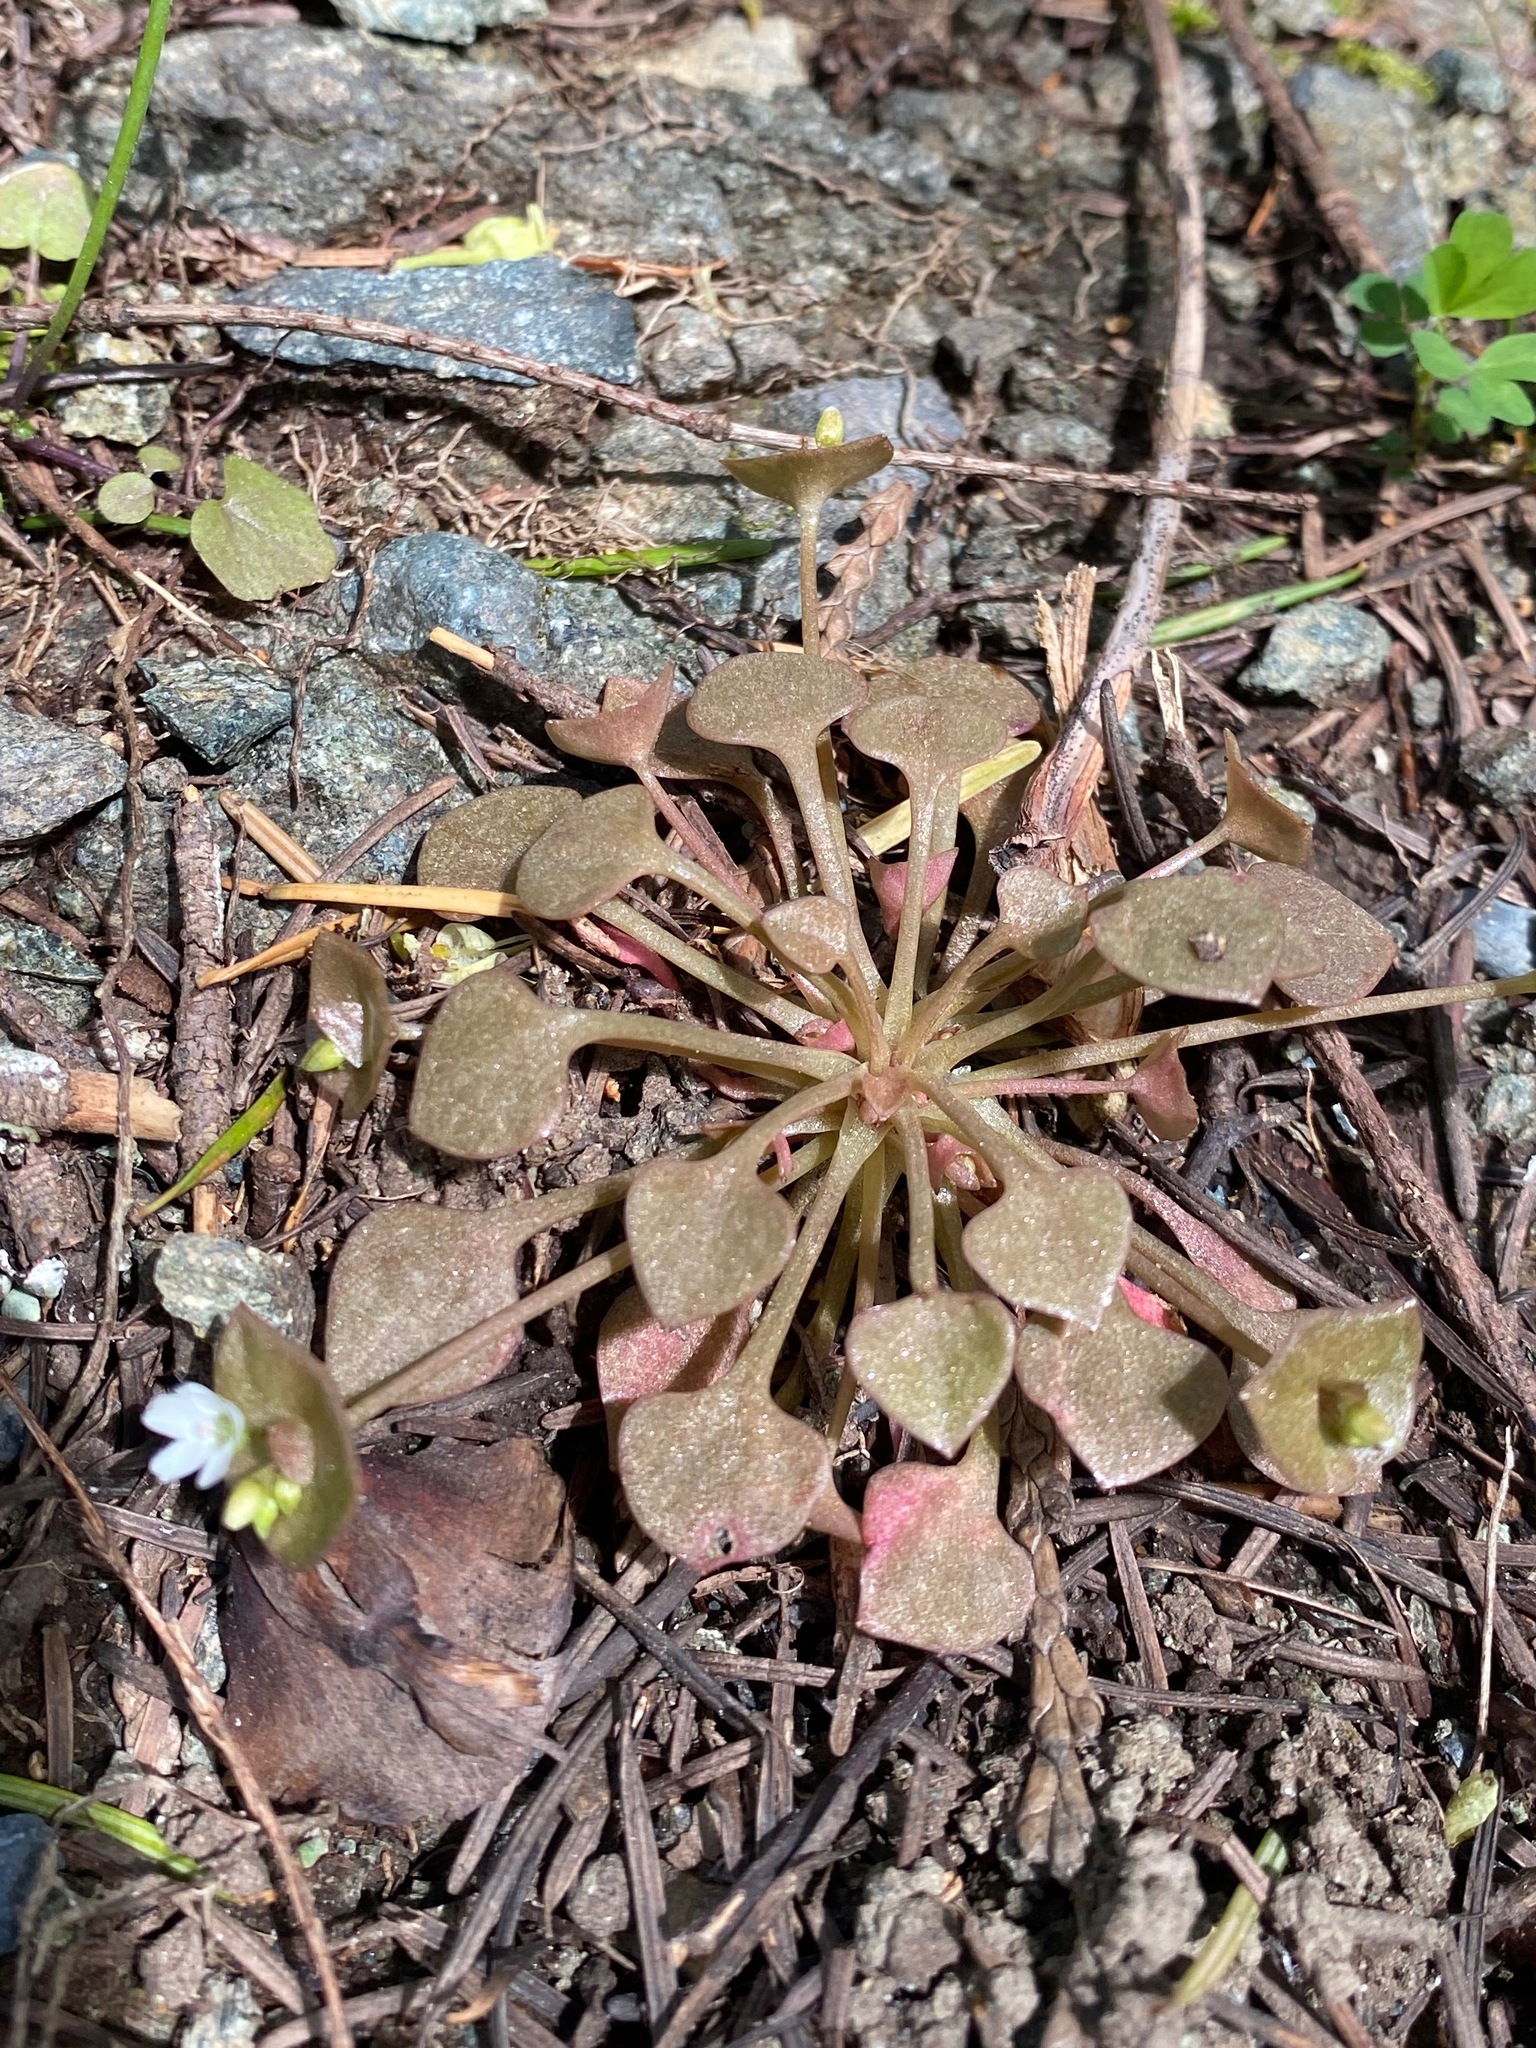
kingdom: Plantae
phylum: Tracheophyta
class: Magnoliopsida
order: Caryophyllales
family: Montiaceae
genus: Claytonia
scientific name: Claytonia rubra
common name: Erubescent miner's-lettuce
